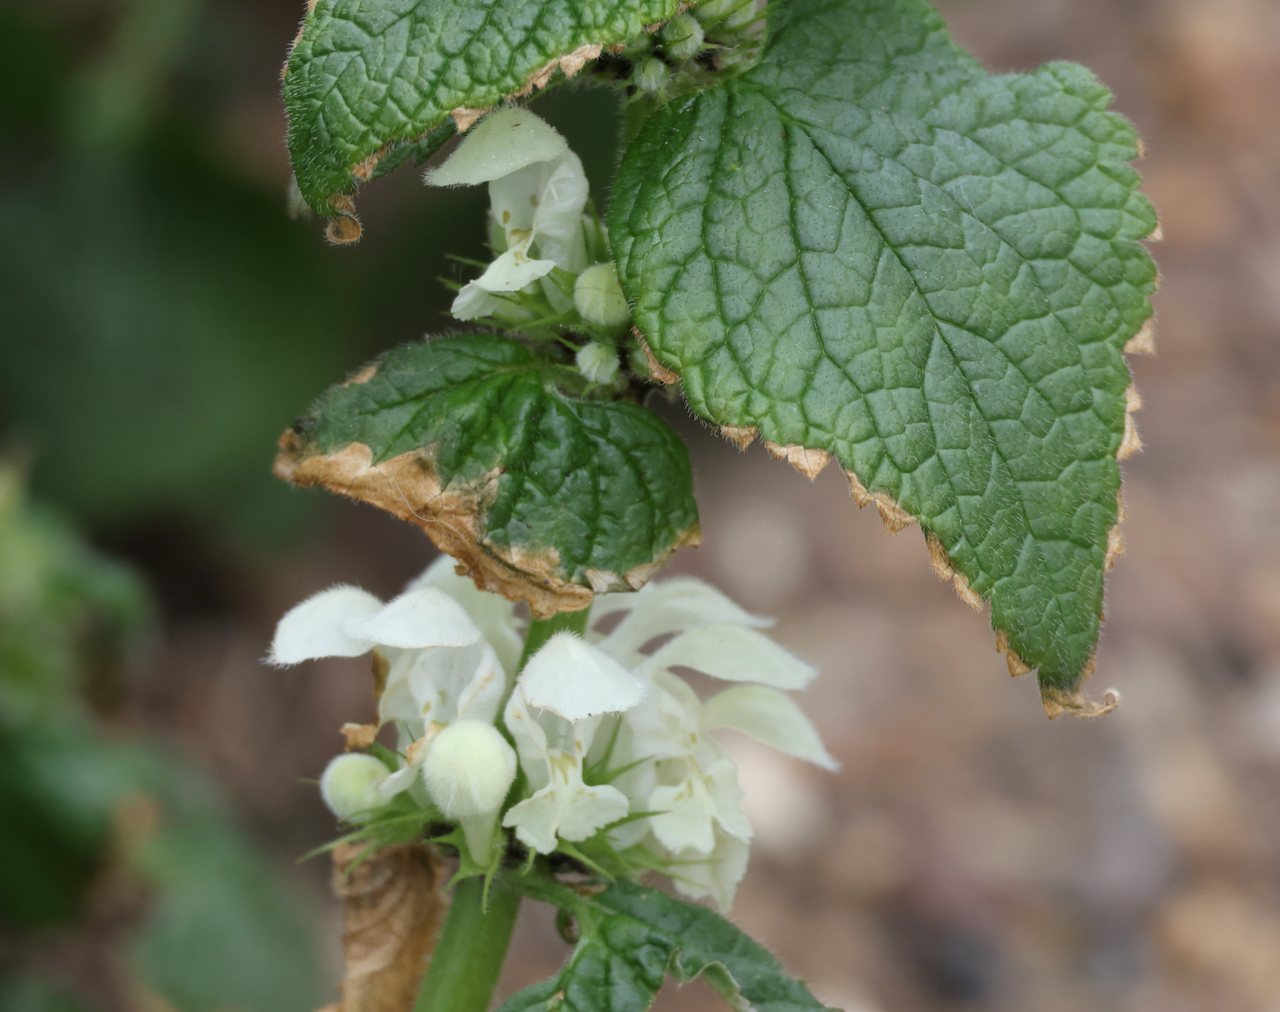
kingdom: Plantae
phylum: Tracheophyta
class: Magnoliopsida
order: Lamiales
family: Lamiaceae
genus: Lamium
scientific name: Lamium album
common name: White dead-nettle
